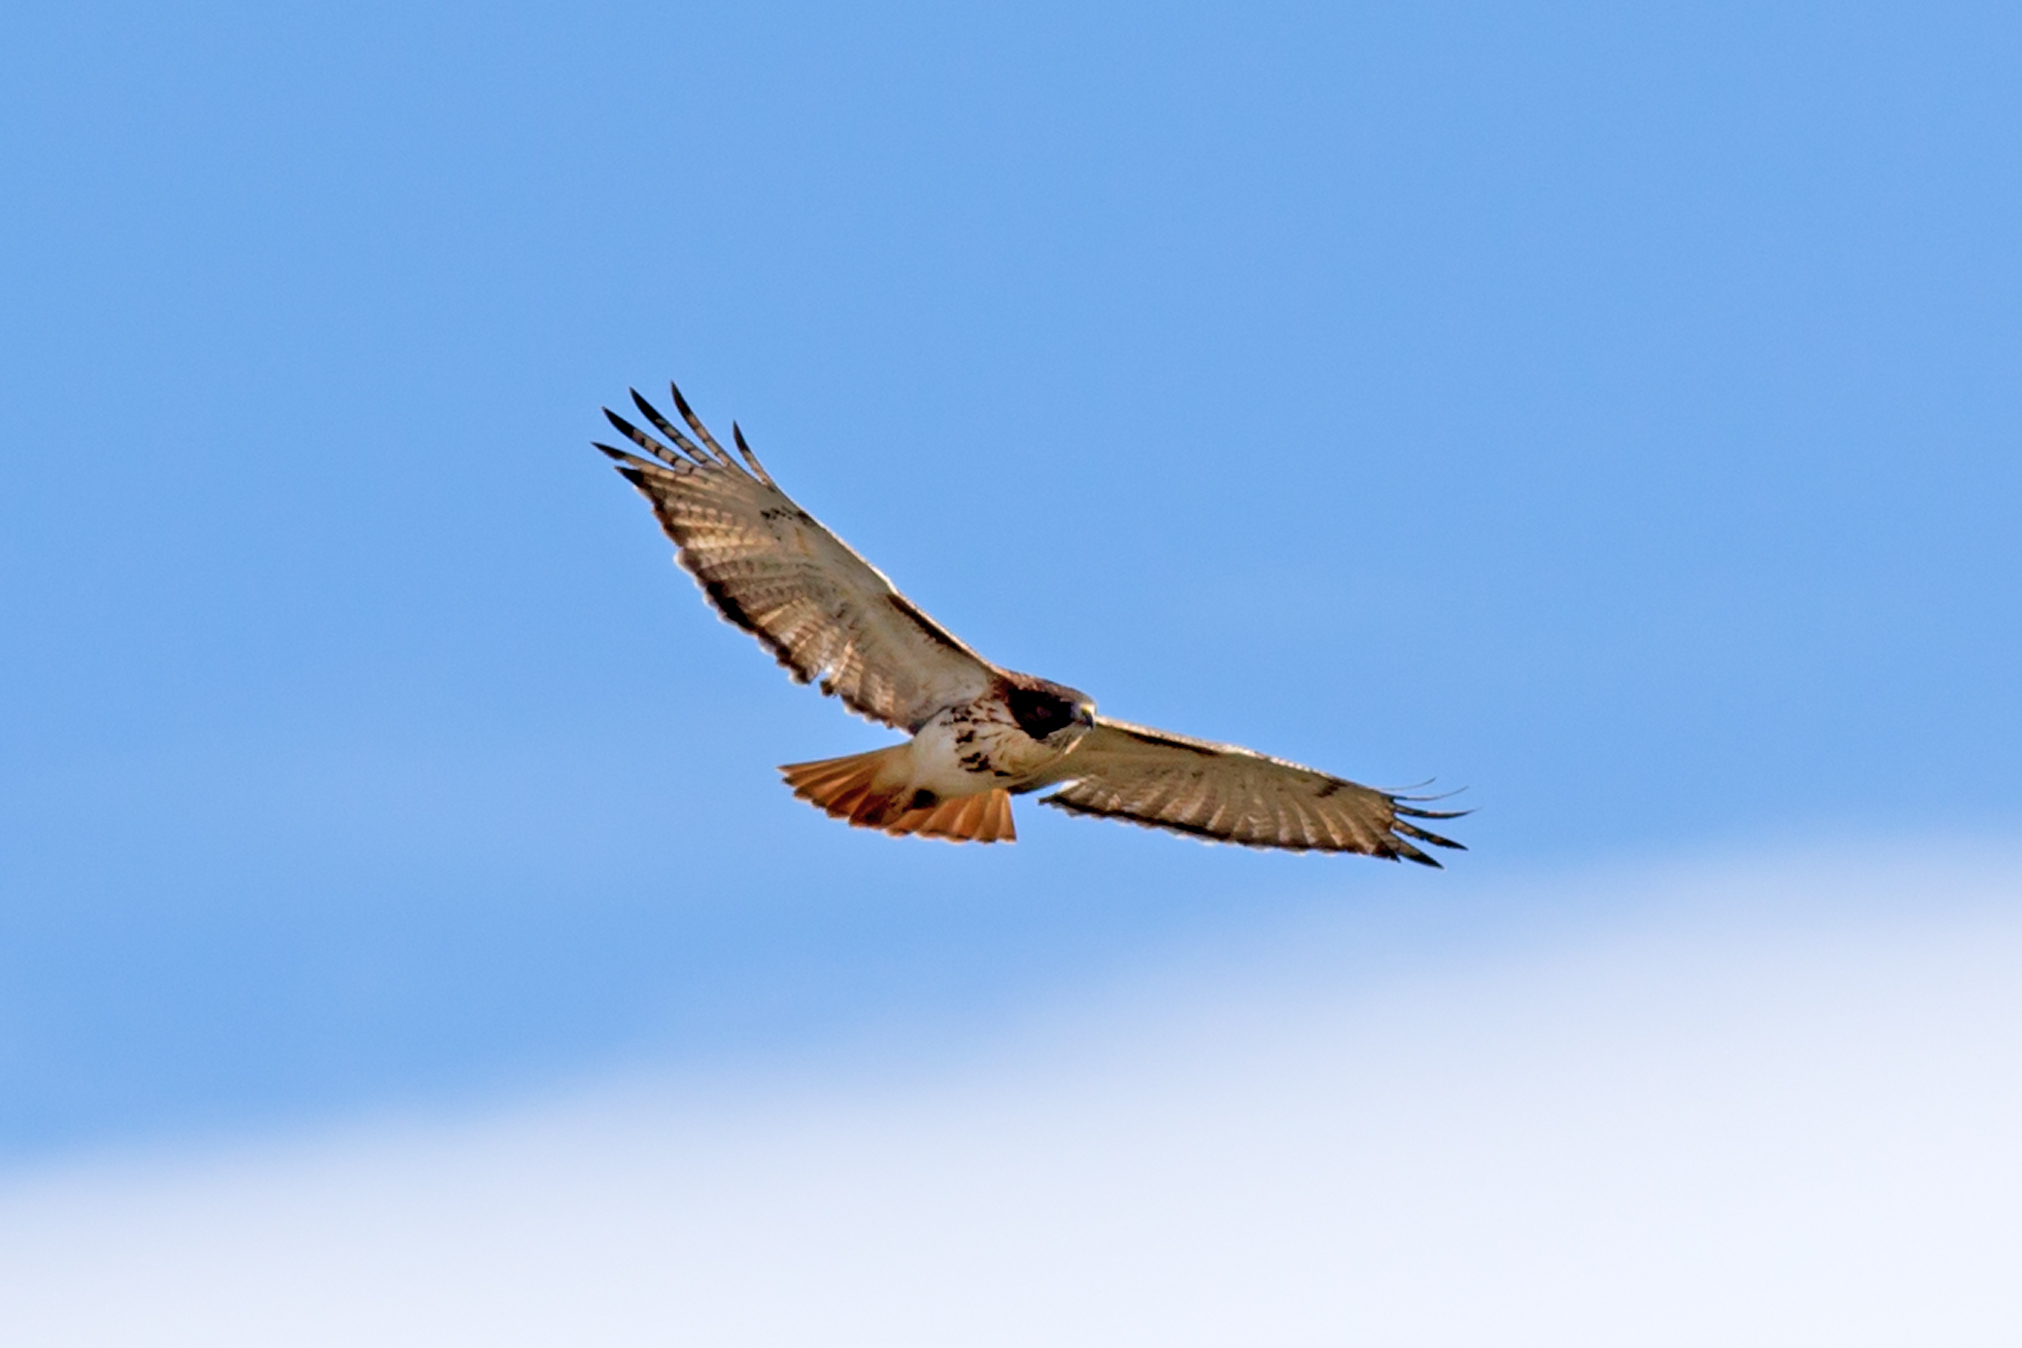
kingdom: Animalia
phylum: Chordata
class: Aves
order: Accipitriformes
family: Accipitridae
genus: Buteo
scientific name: Buteo jamaicensis
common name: Red-tailed hawk
